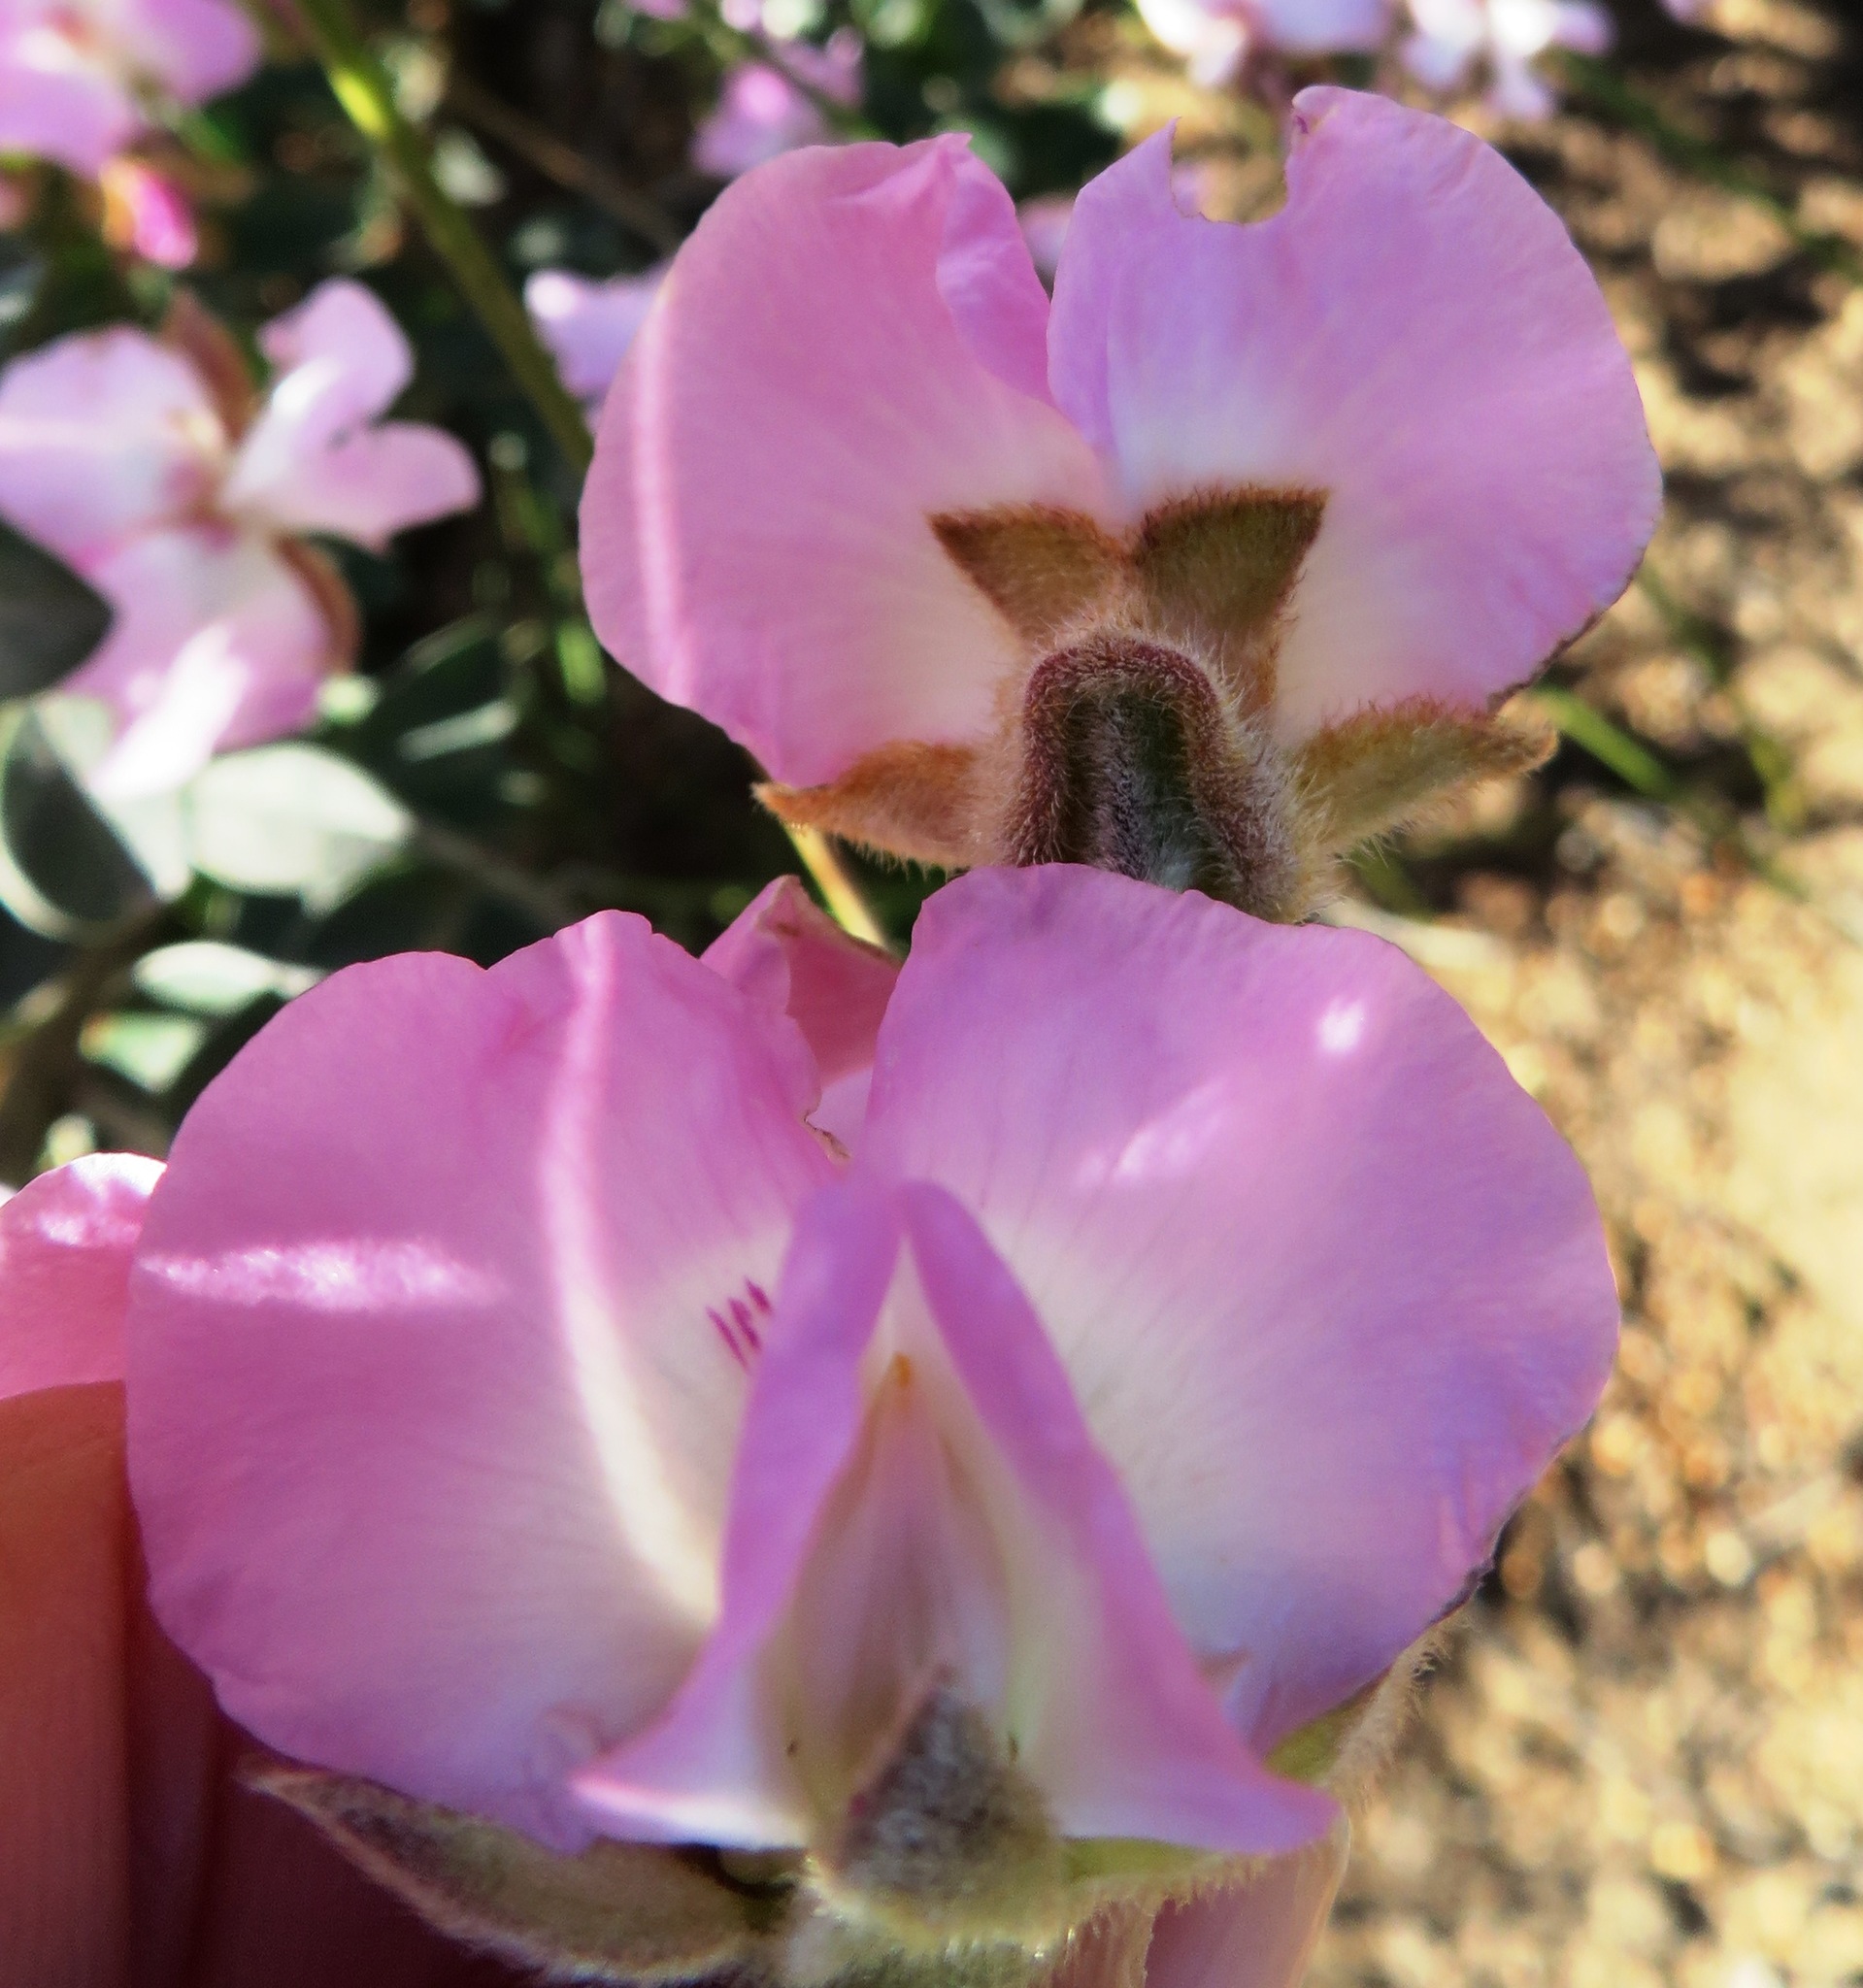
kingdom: Plantae
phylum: Tracheophyta
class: Magnoliopsida
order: Fabales
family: Fabaceae
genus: Podalyria
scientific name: Podalyria variabilis
